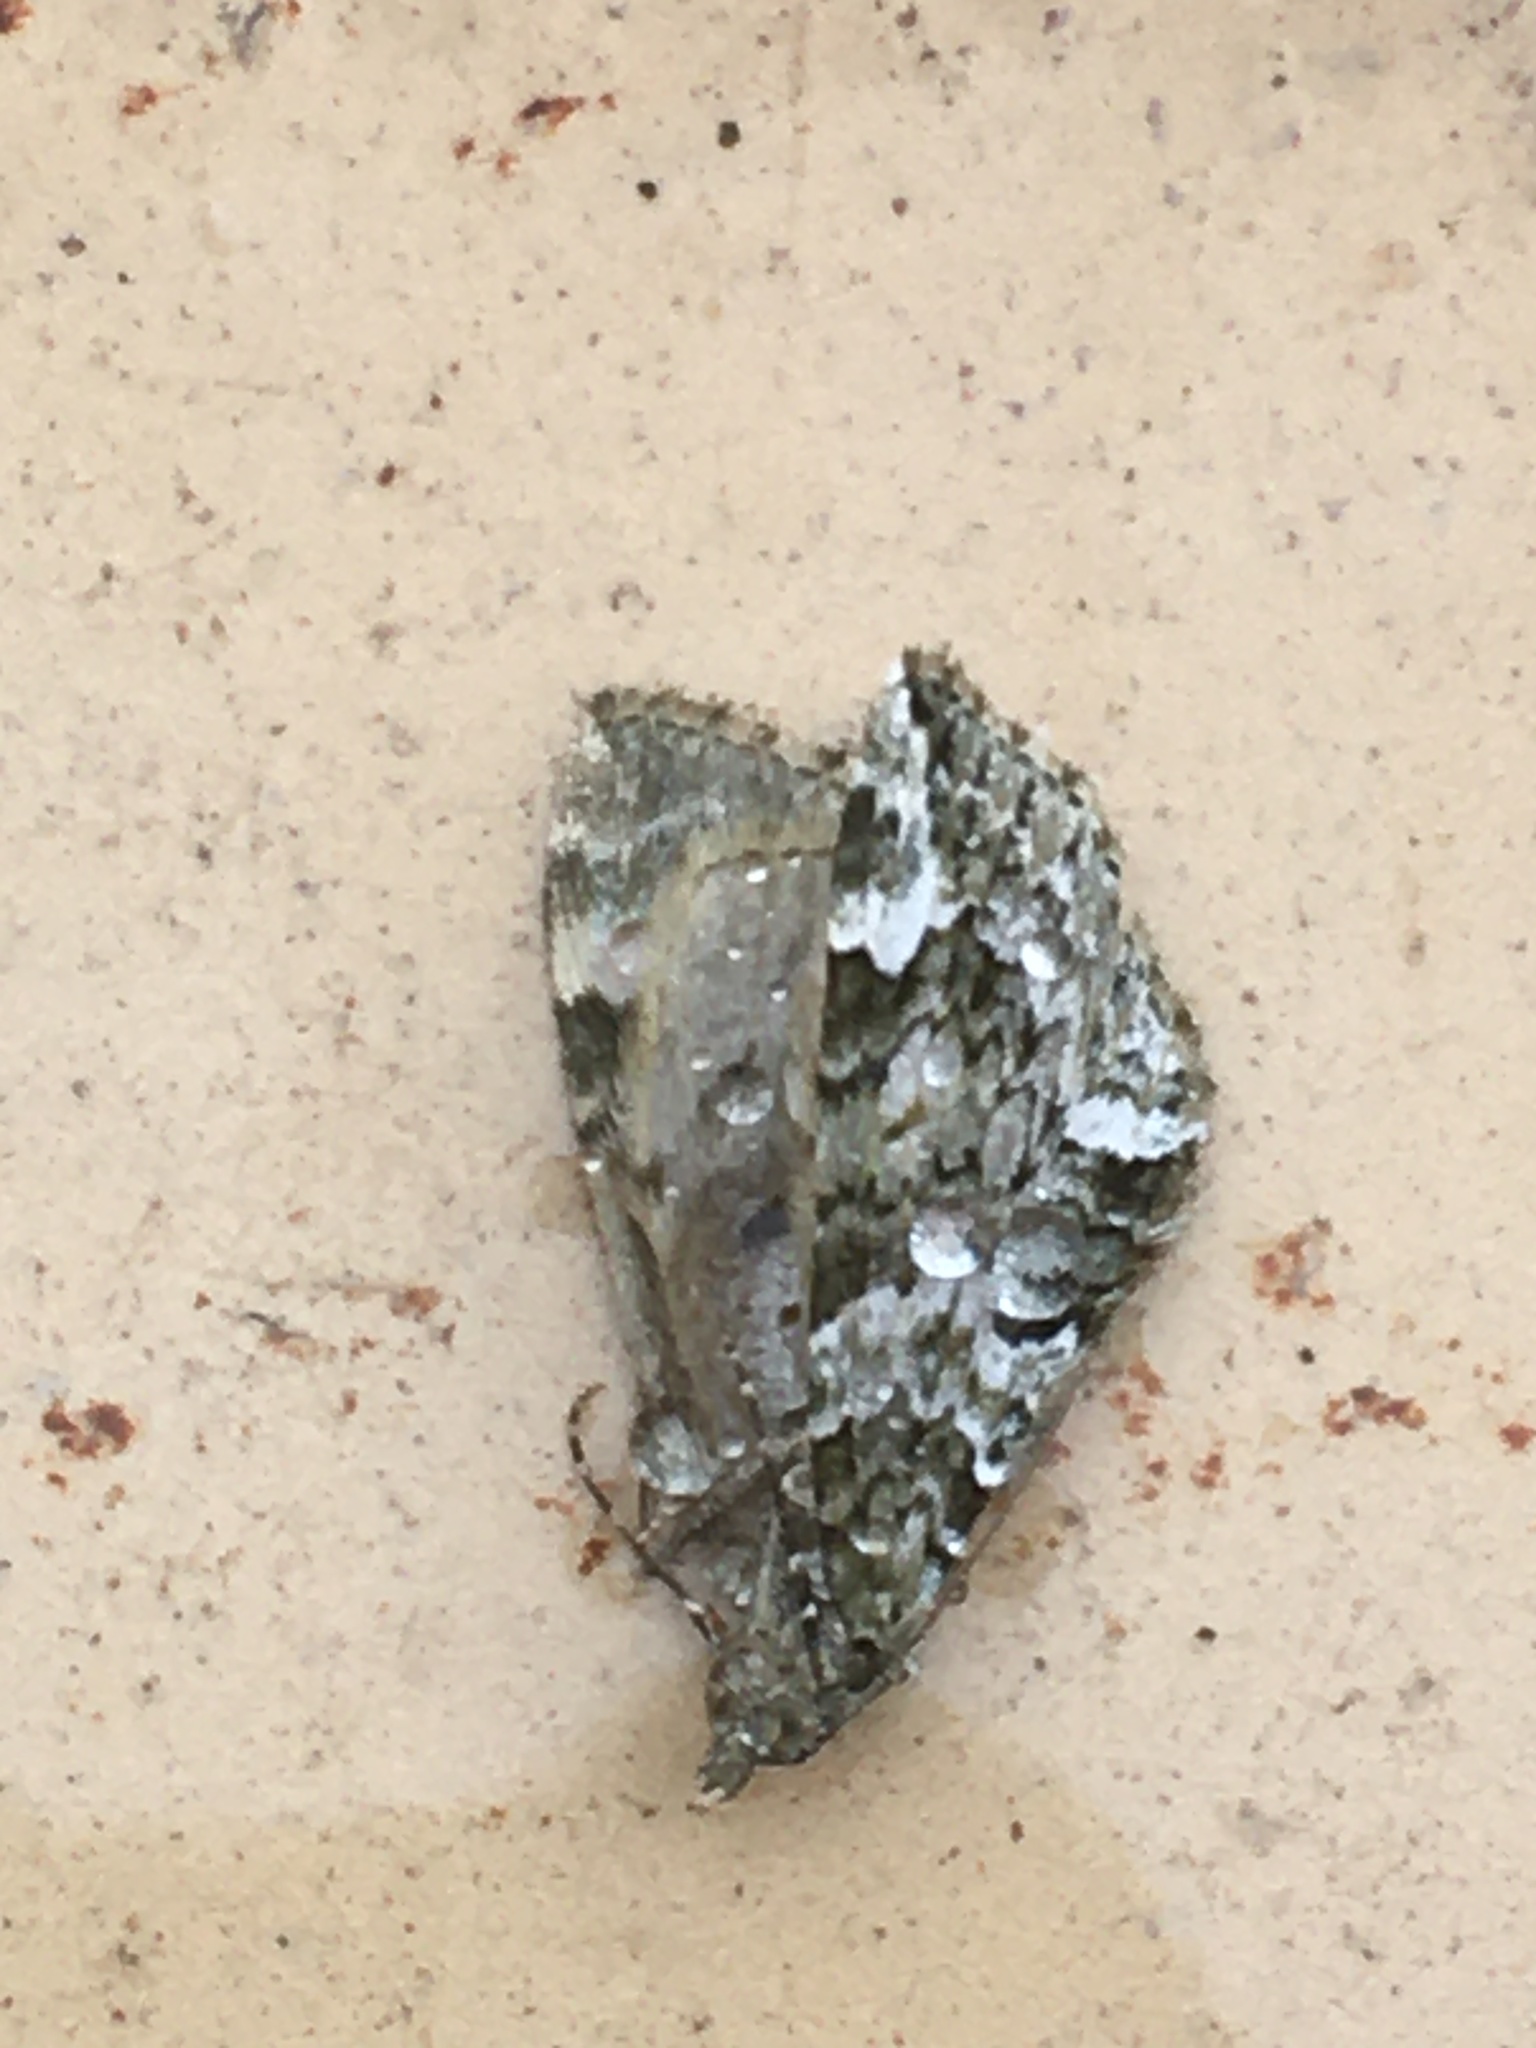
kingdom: Animalia
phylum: Arthropoda
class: Insecta
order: Lepidoptera
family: Geometridae
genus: Chloroclysta
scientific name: Chloroclysta siterata
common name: Red-green carpet
